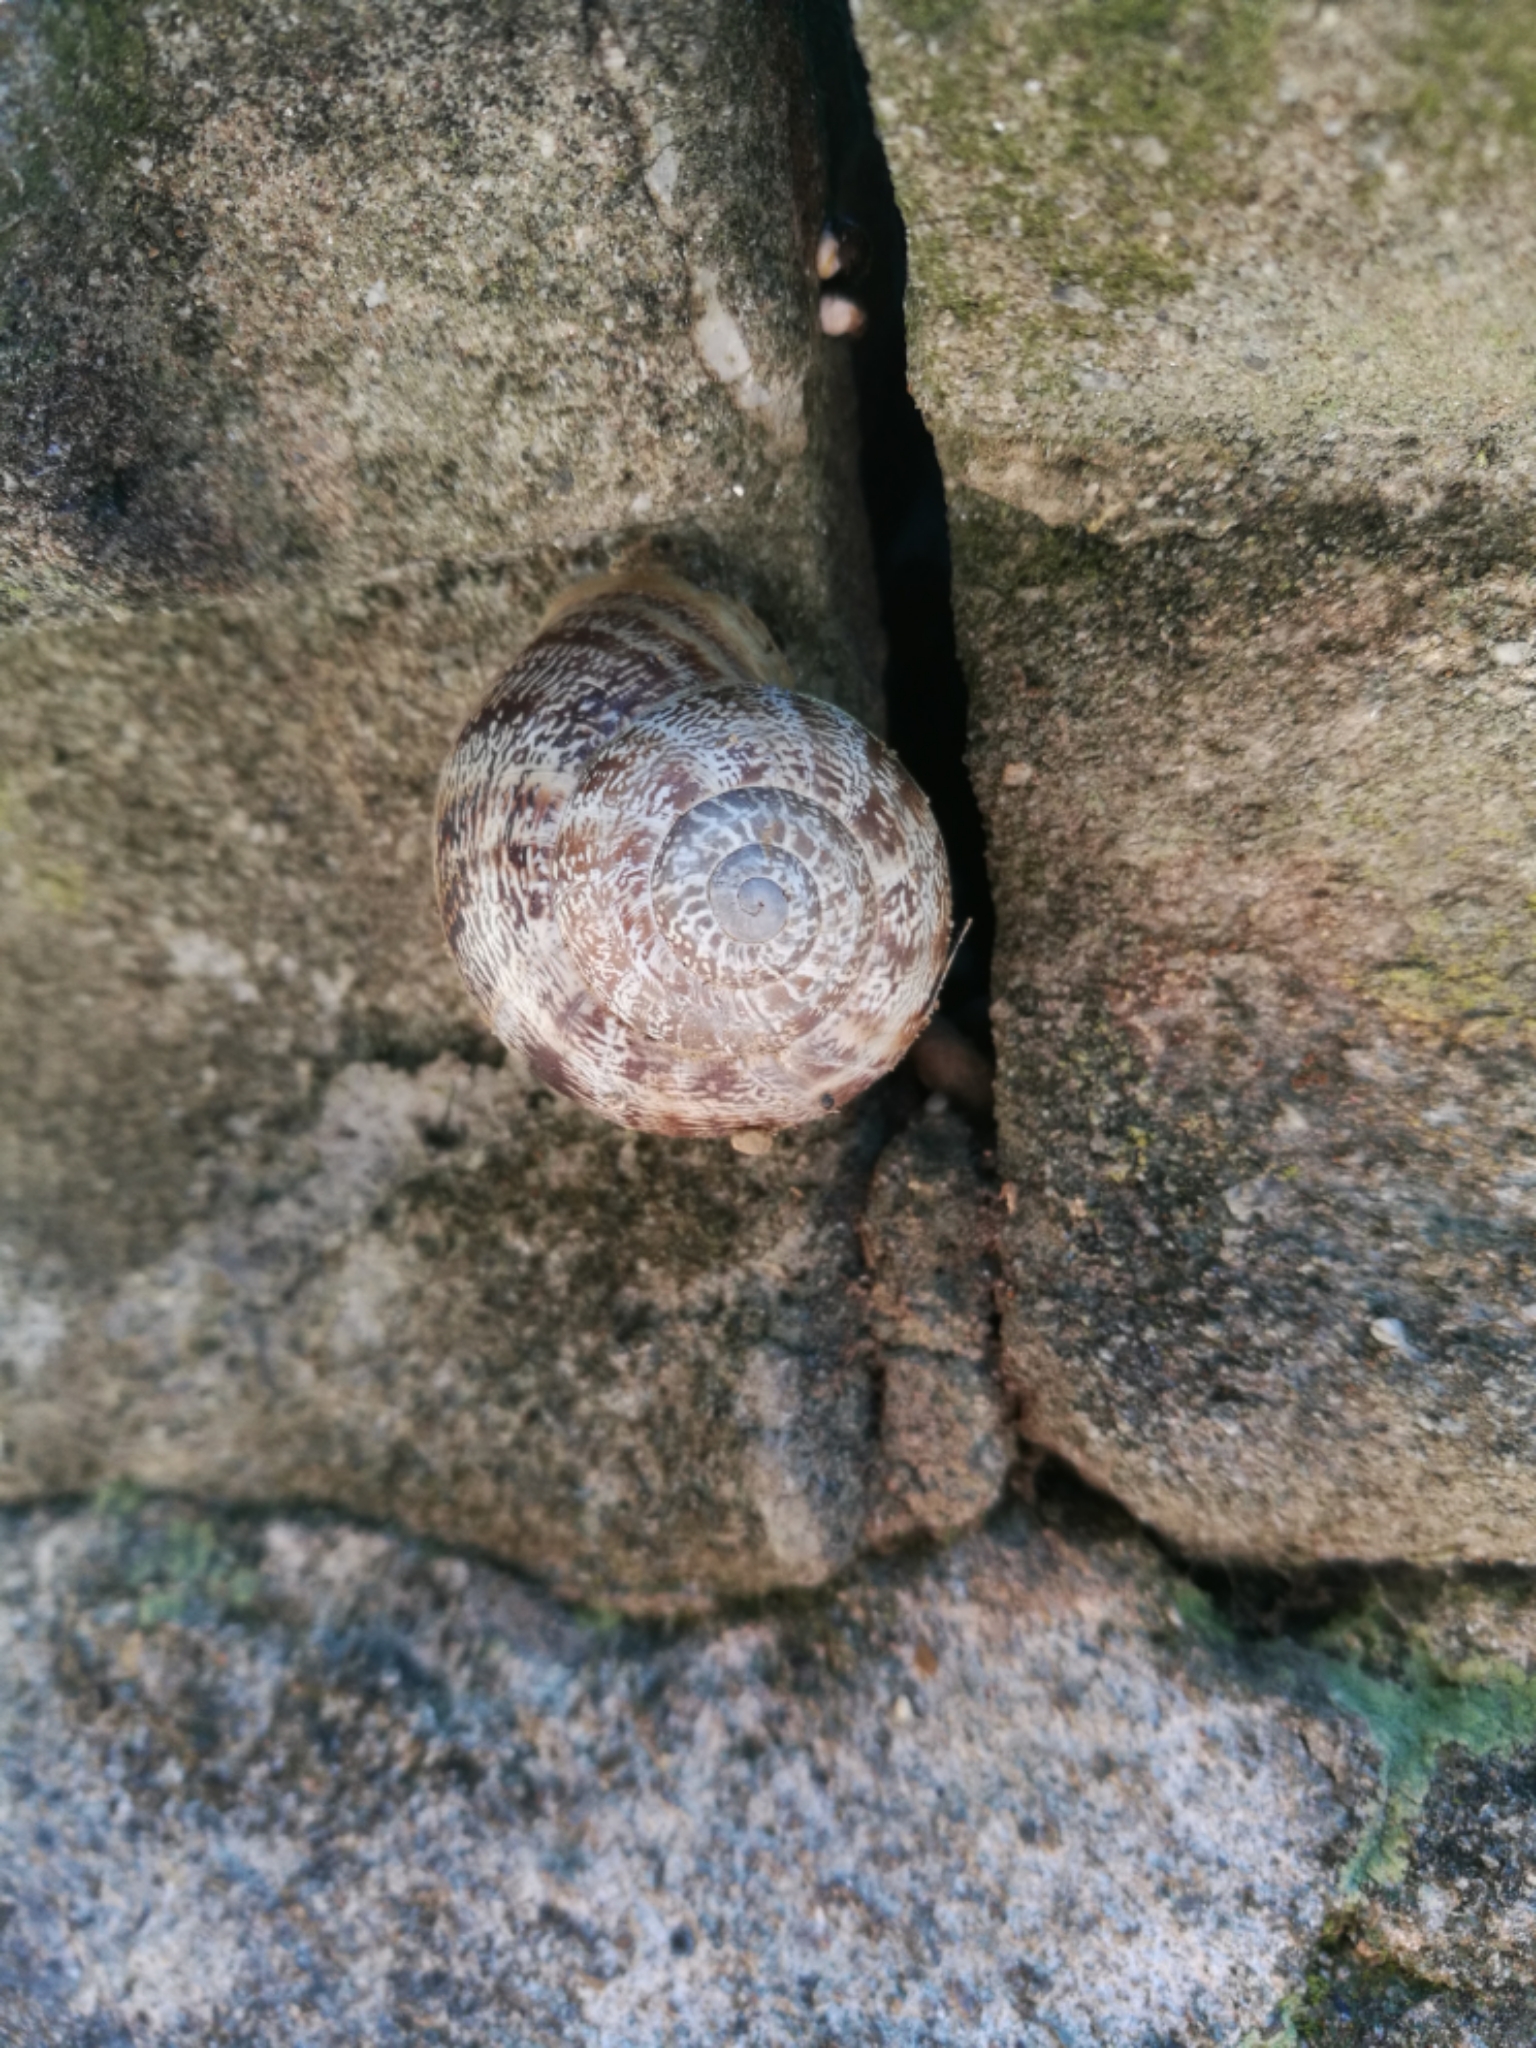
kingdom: Animalia
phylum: Mollusca
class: Gastropoda
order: Stylommatophora
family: Helicidae
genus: Eobania
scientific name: Eobania vermiculata
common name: Chocolateband snail
